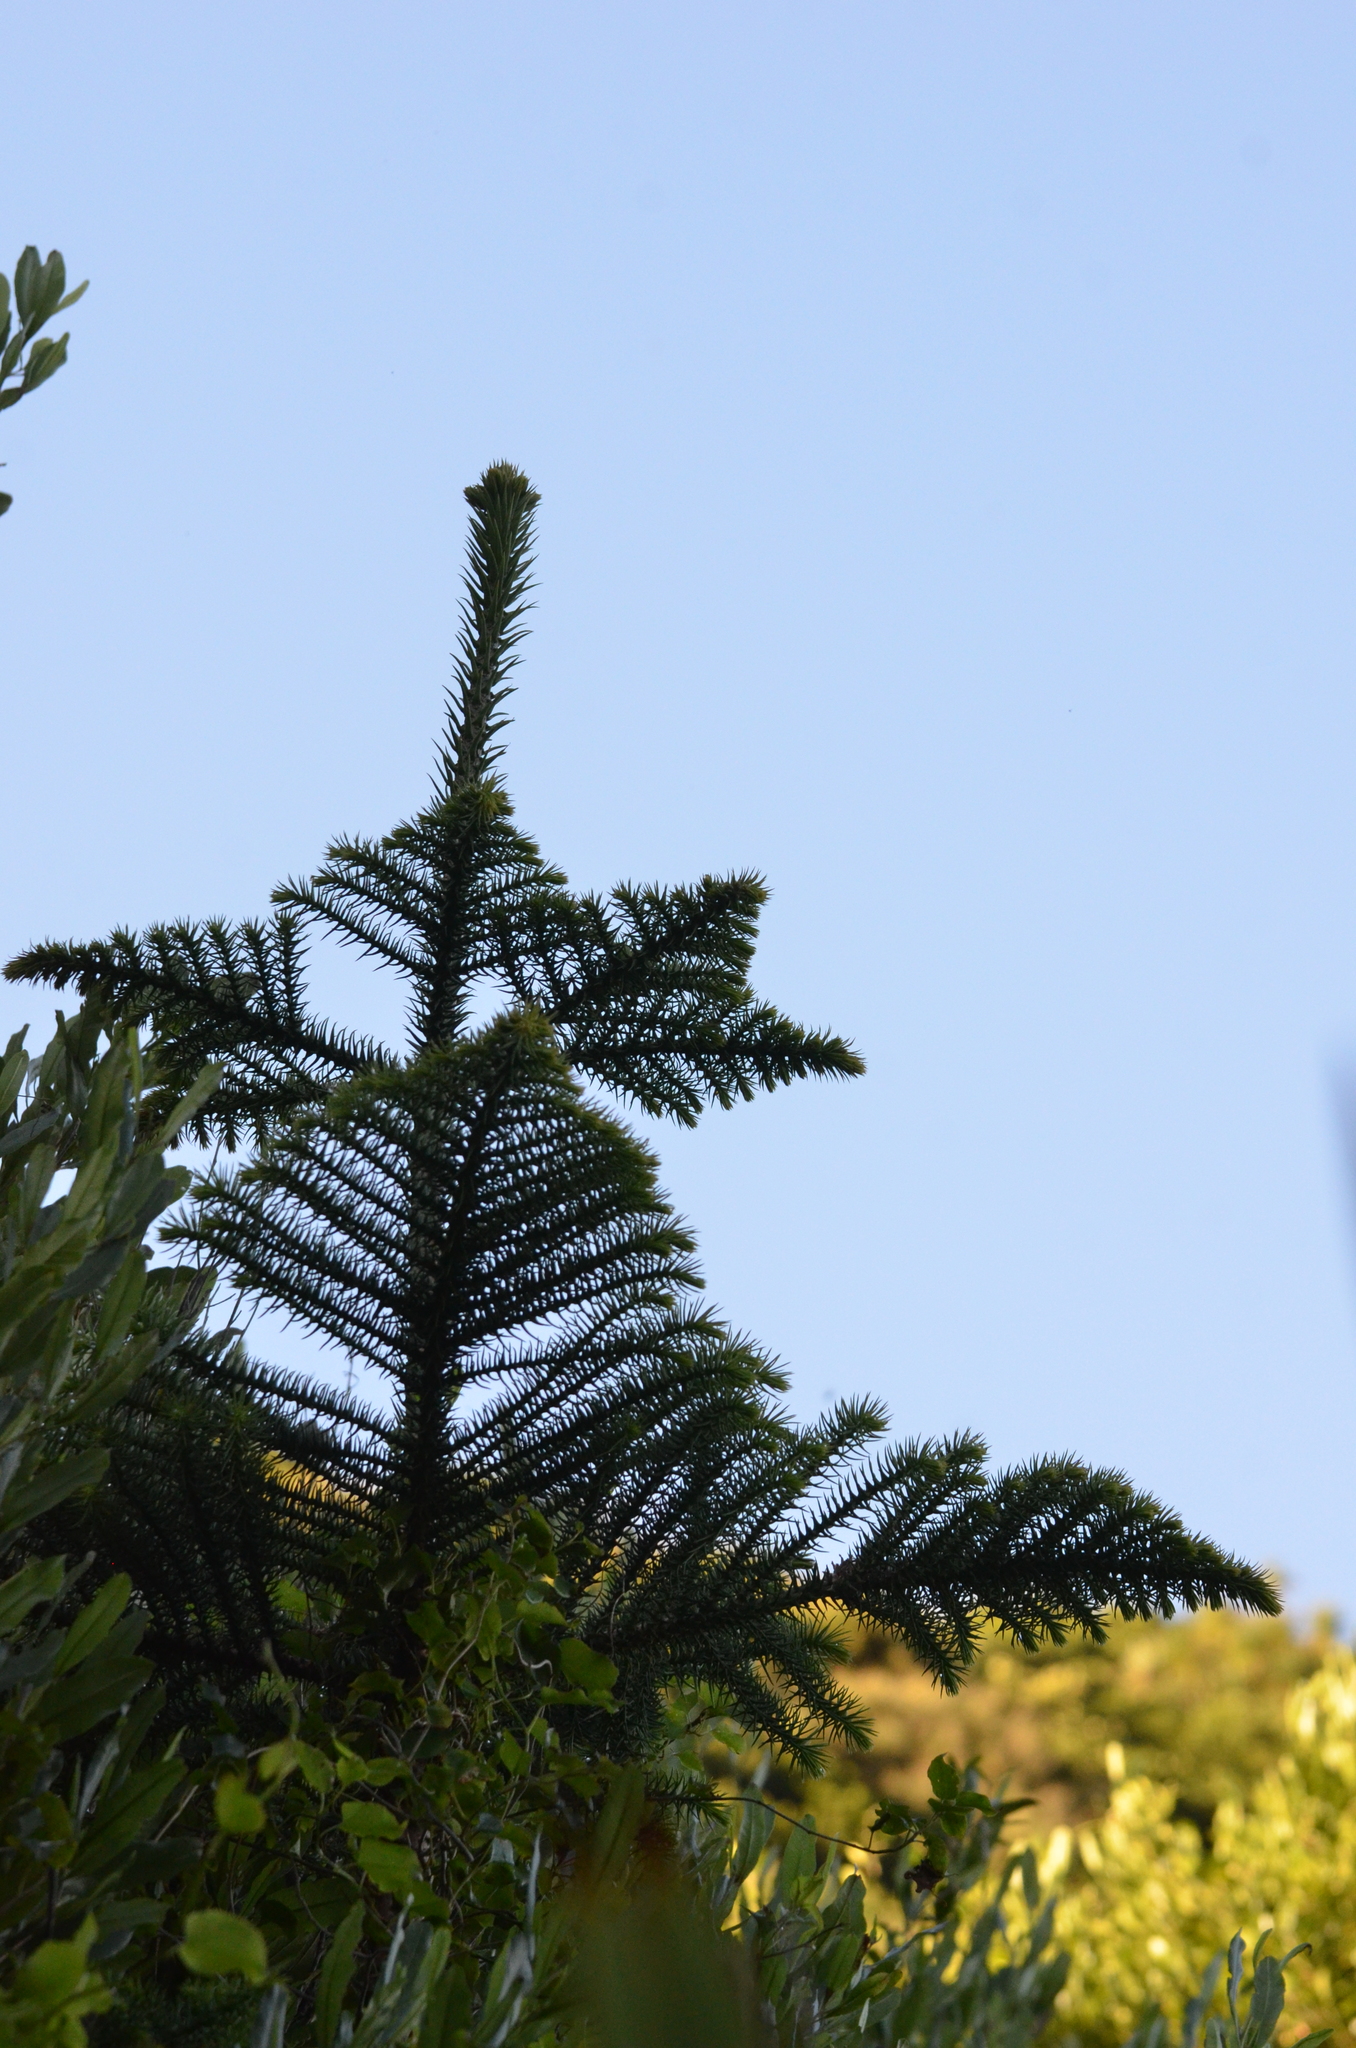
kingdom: Plantae
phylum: Tracheophyta
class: Pinopsida
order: Pinales
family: Araucariaceae
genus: Araucaria
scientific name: Araucaria heterophylla
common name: Norfolk island pine
